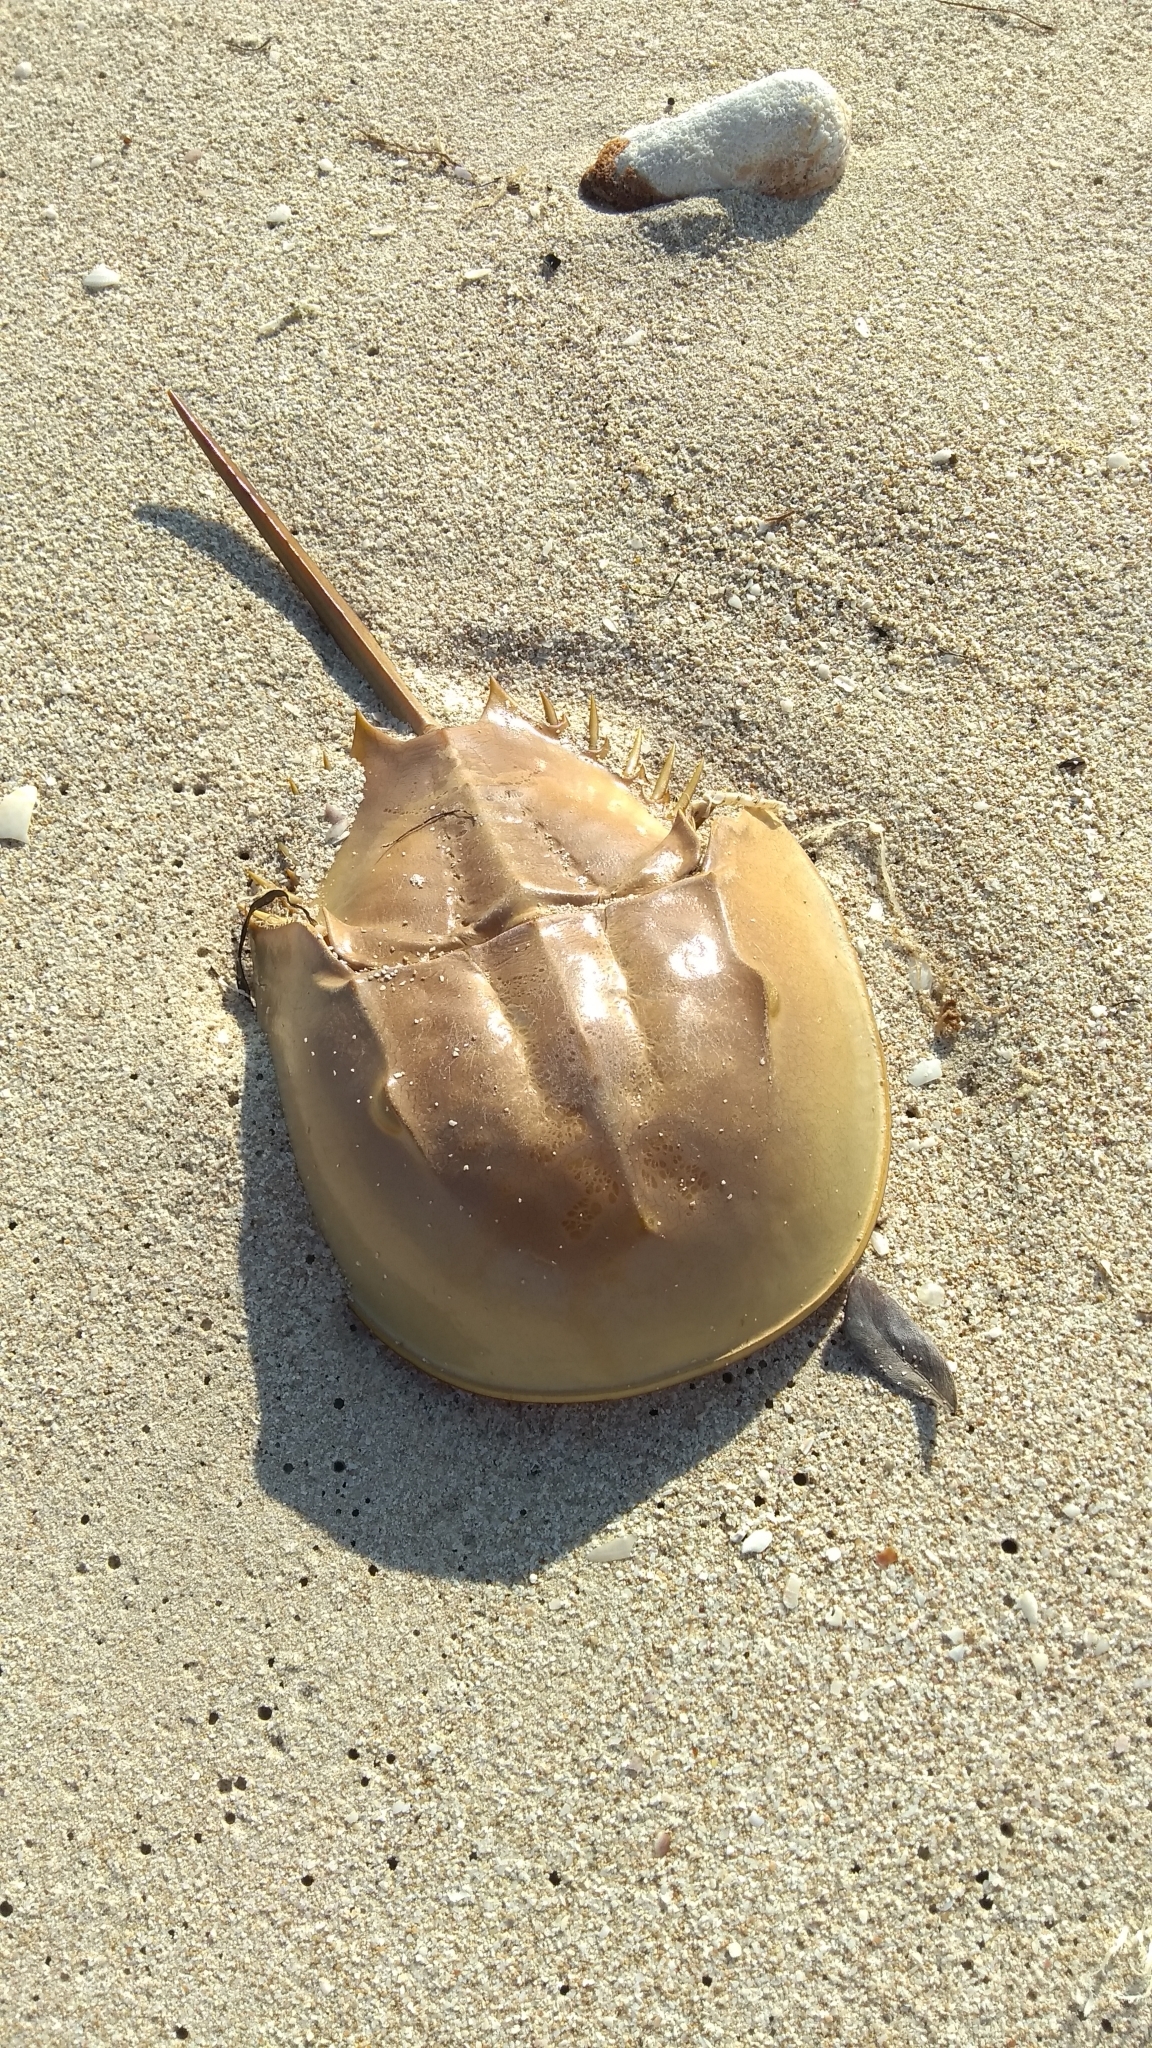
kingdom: Animalia
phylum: Arthropoda
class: Merostomata
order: Xiphosurida
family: Limulidae
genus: Limulus
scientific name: Limulus polyphemus
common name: Horseshoe crab
